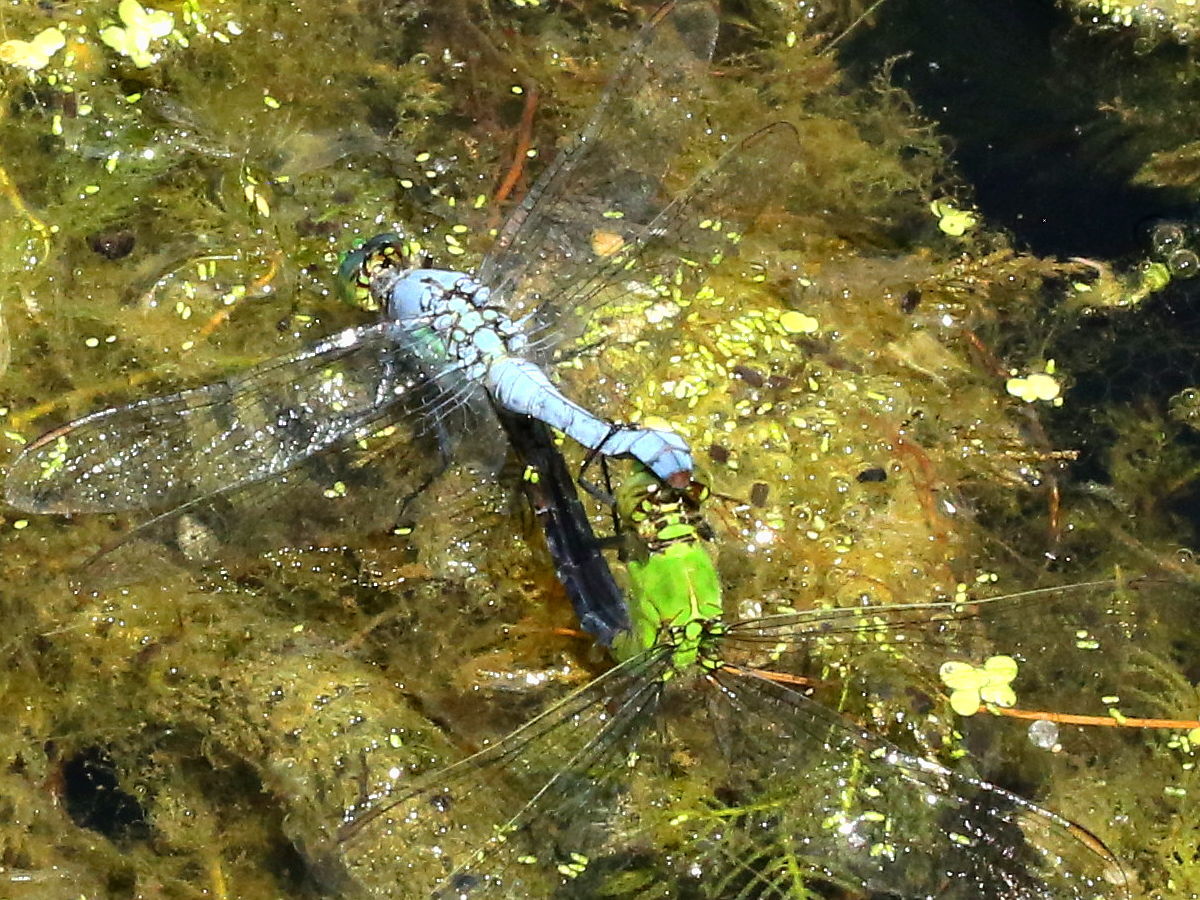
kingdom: Animalia
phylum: Arthropoda
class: Insecta
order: Odonata
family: Libellulidae
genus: Erythemis
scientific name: Erythemis simplicicollis
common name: Eastern pondhawk
